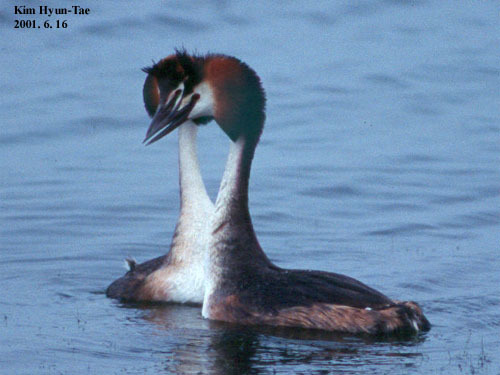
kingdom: Animalia
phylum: Chordata
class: Aves
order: Podicipediformes
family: Podicipedidae
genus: Podiceps
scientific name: Podiceps cristatus
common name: Great crested grebe
